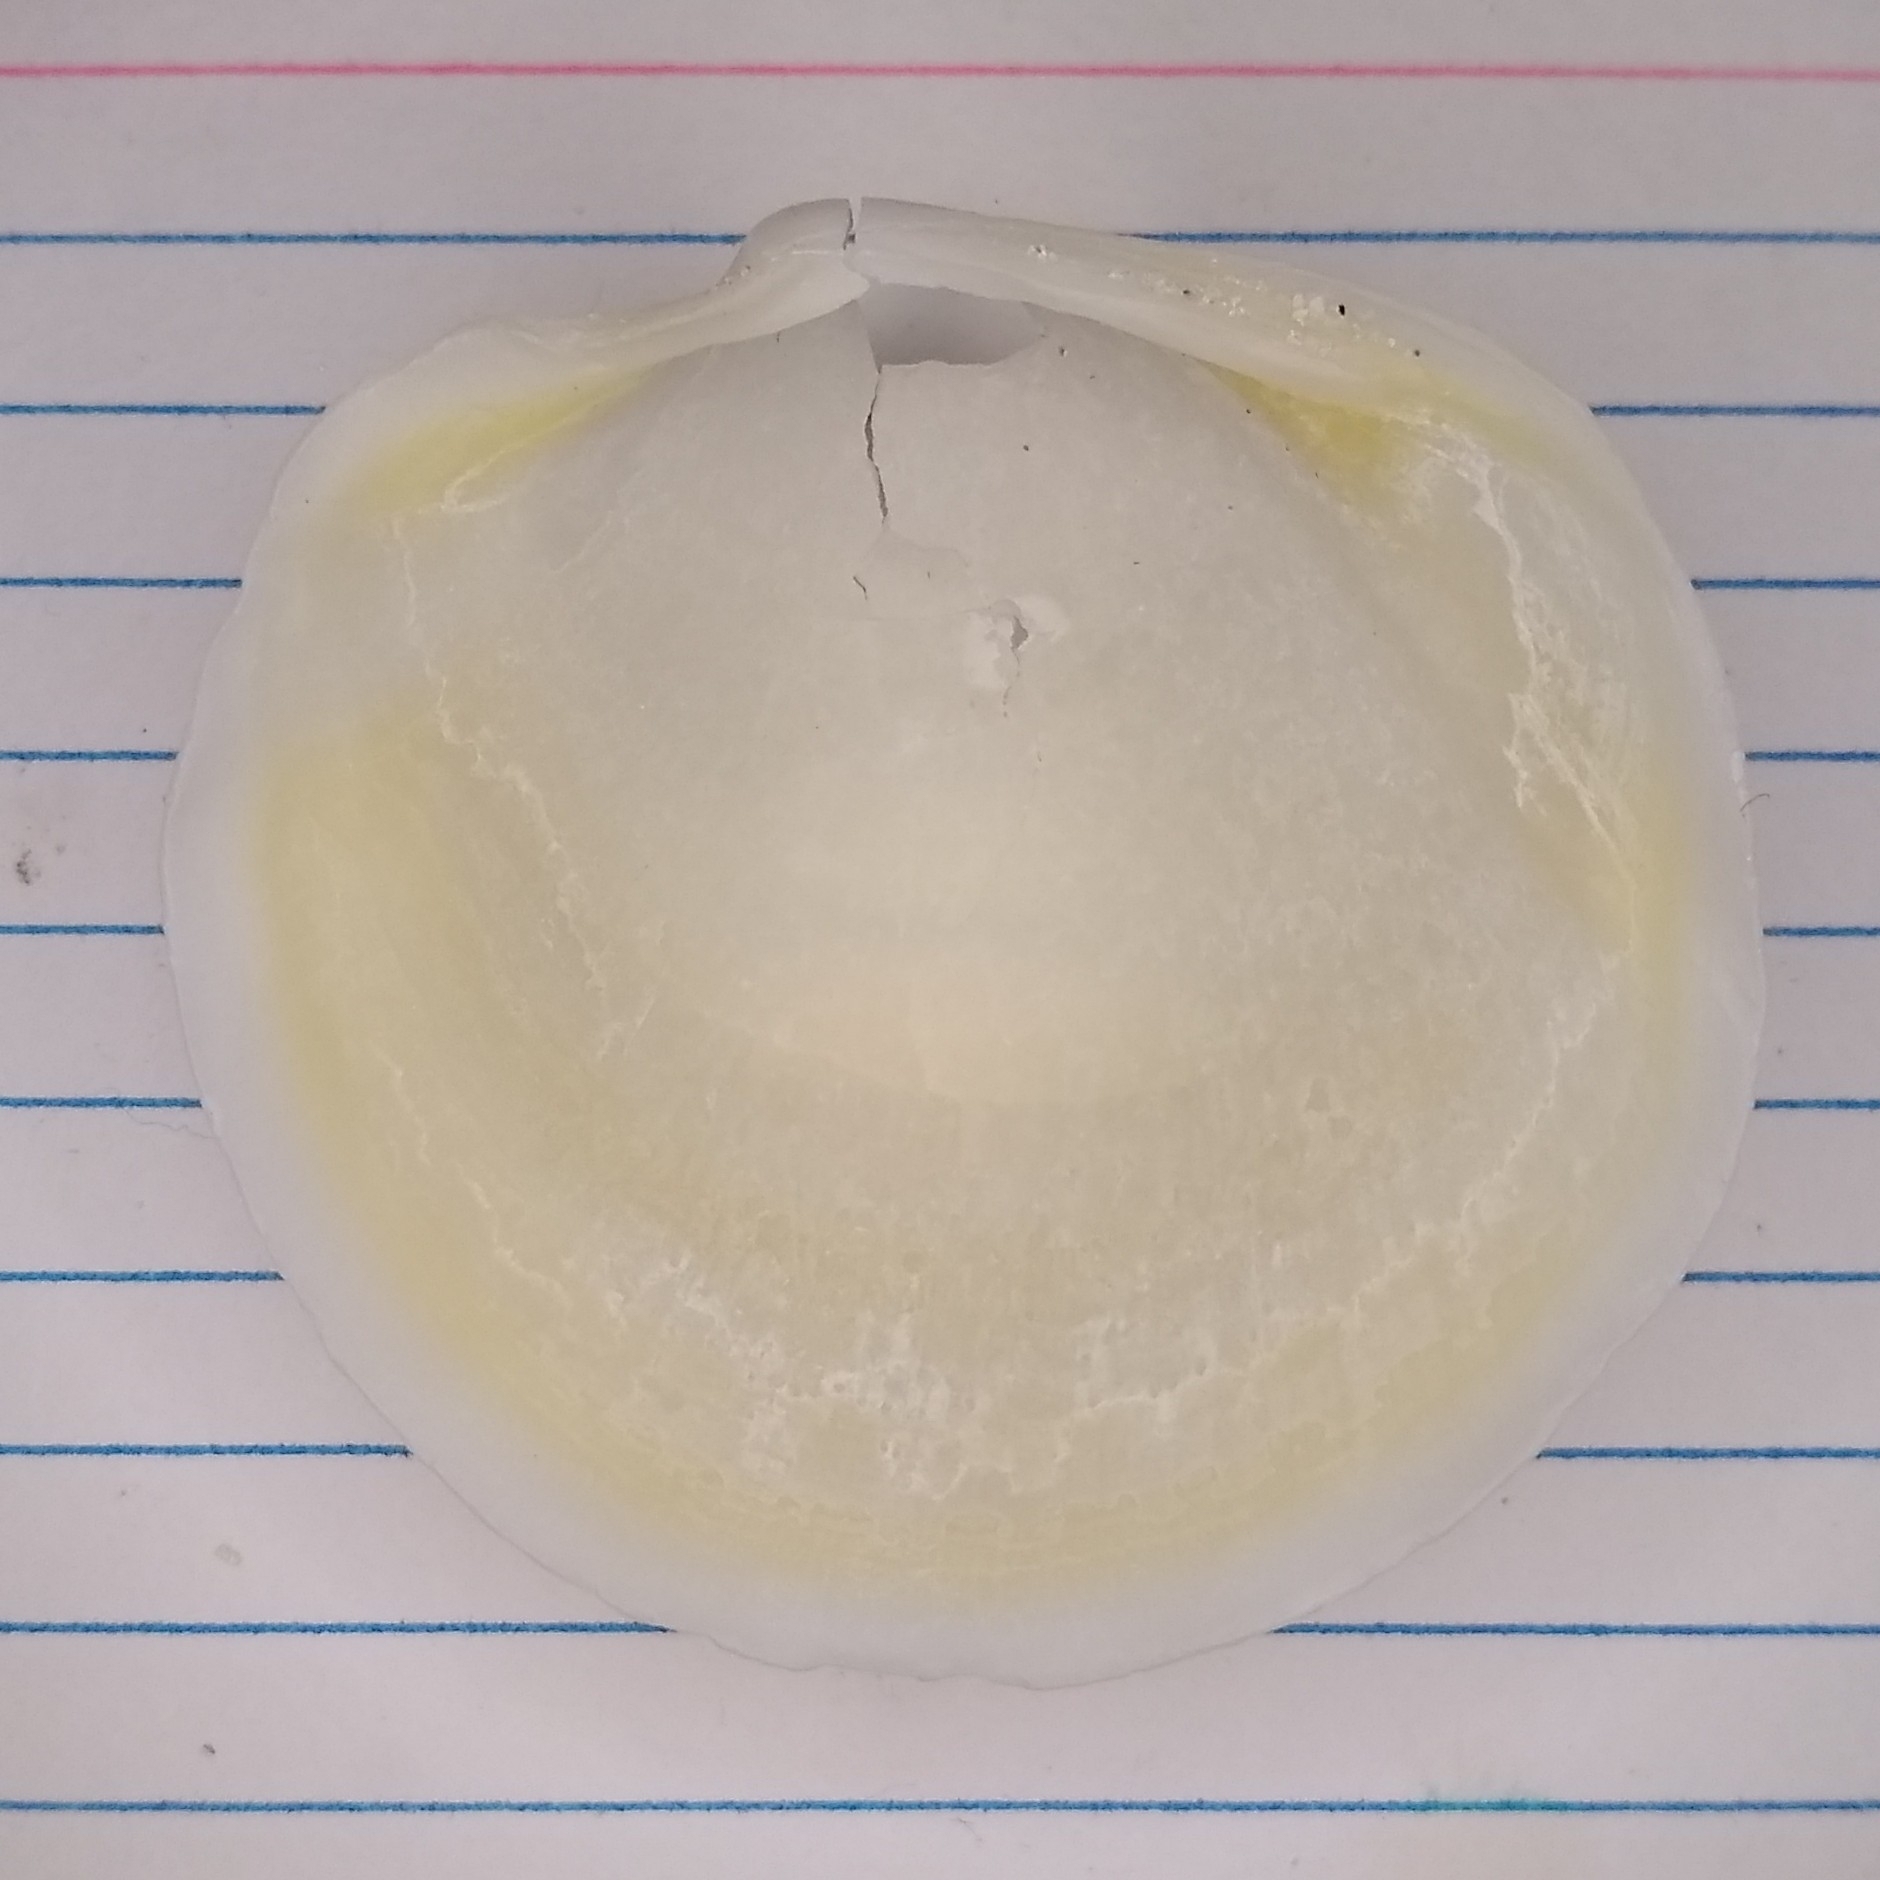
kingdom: Animalia
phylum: Mollusca
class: Bivalvia
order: Lucinida
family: Lucinidae
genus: Anodontia
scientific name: Anodontia alba
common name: Buttercup lucine
